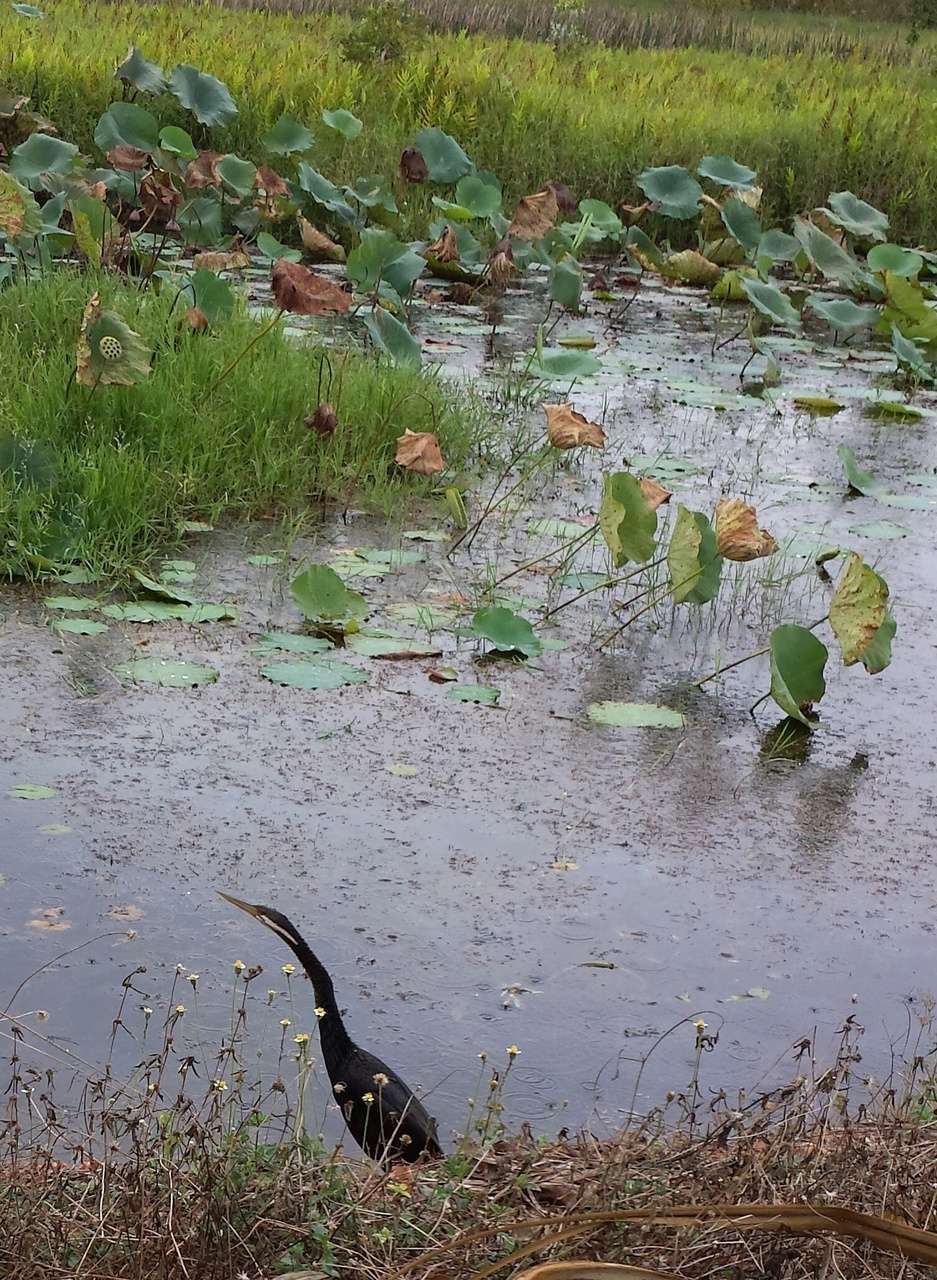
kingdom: Animalia
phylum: Chordata
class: Aves
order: Suliformes
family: Anhingidae
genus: Anhinga
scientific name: Anhinga novaehollandiae
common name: Australasian darter
